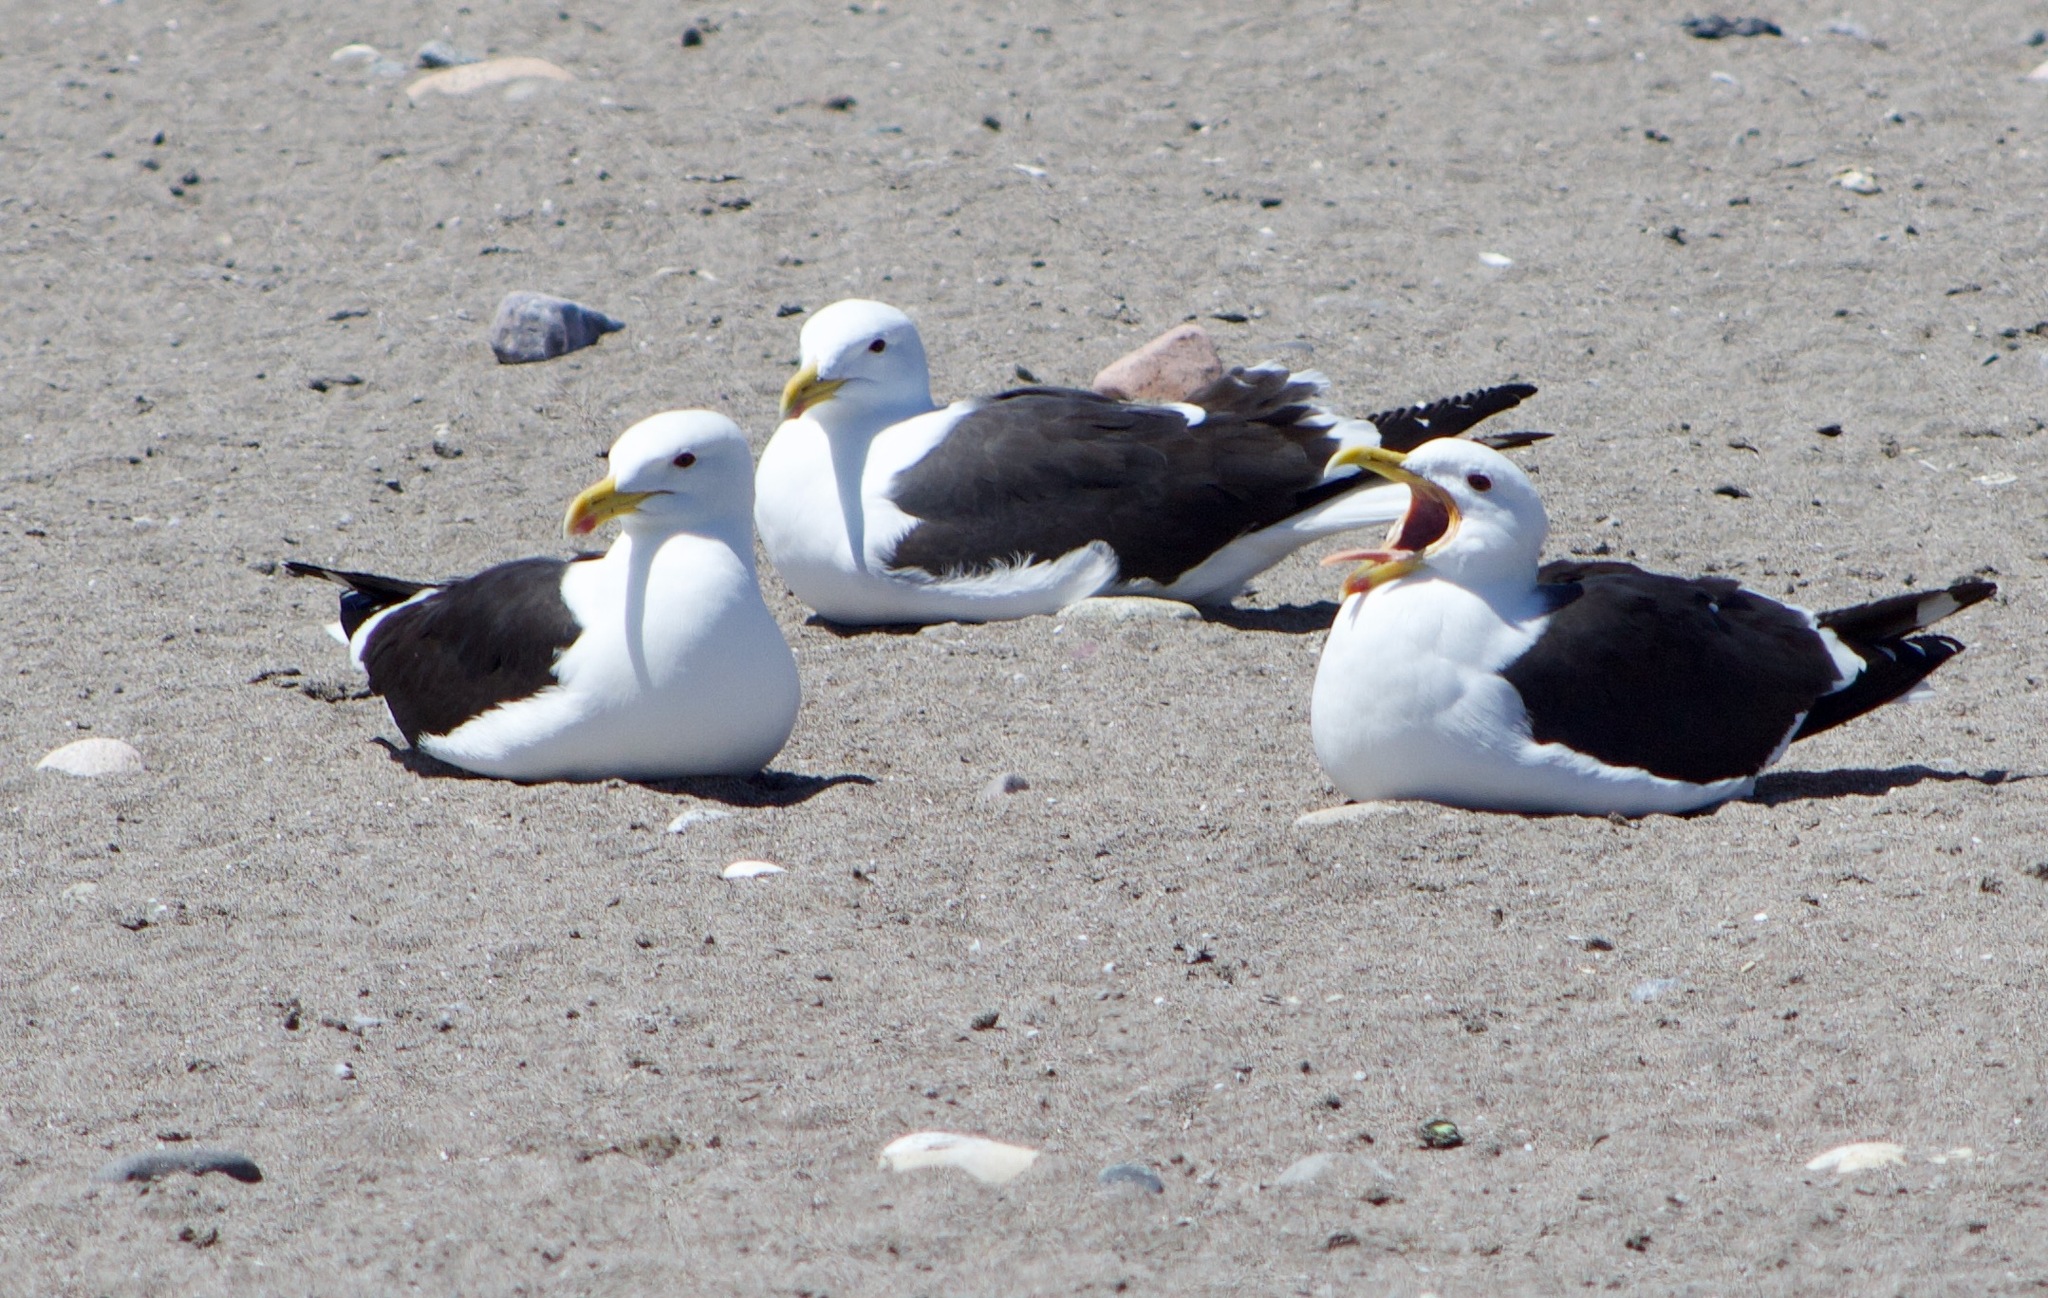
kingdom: Animalia
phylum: Chordata
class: Aves
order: Charadriiformes
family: Laridae
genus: Larus
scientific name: Larus dominicanus
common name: Kelp gull
